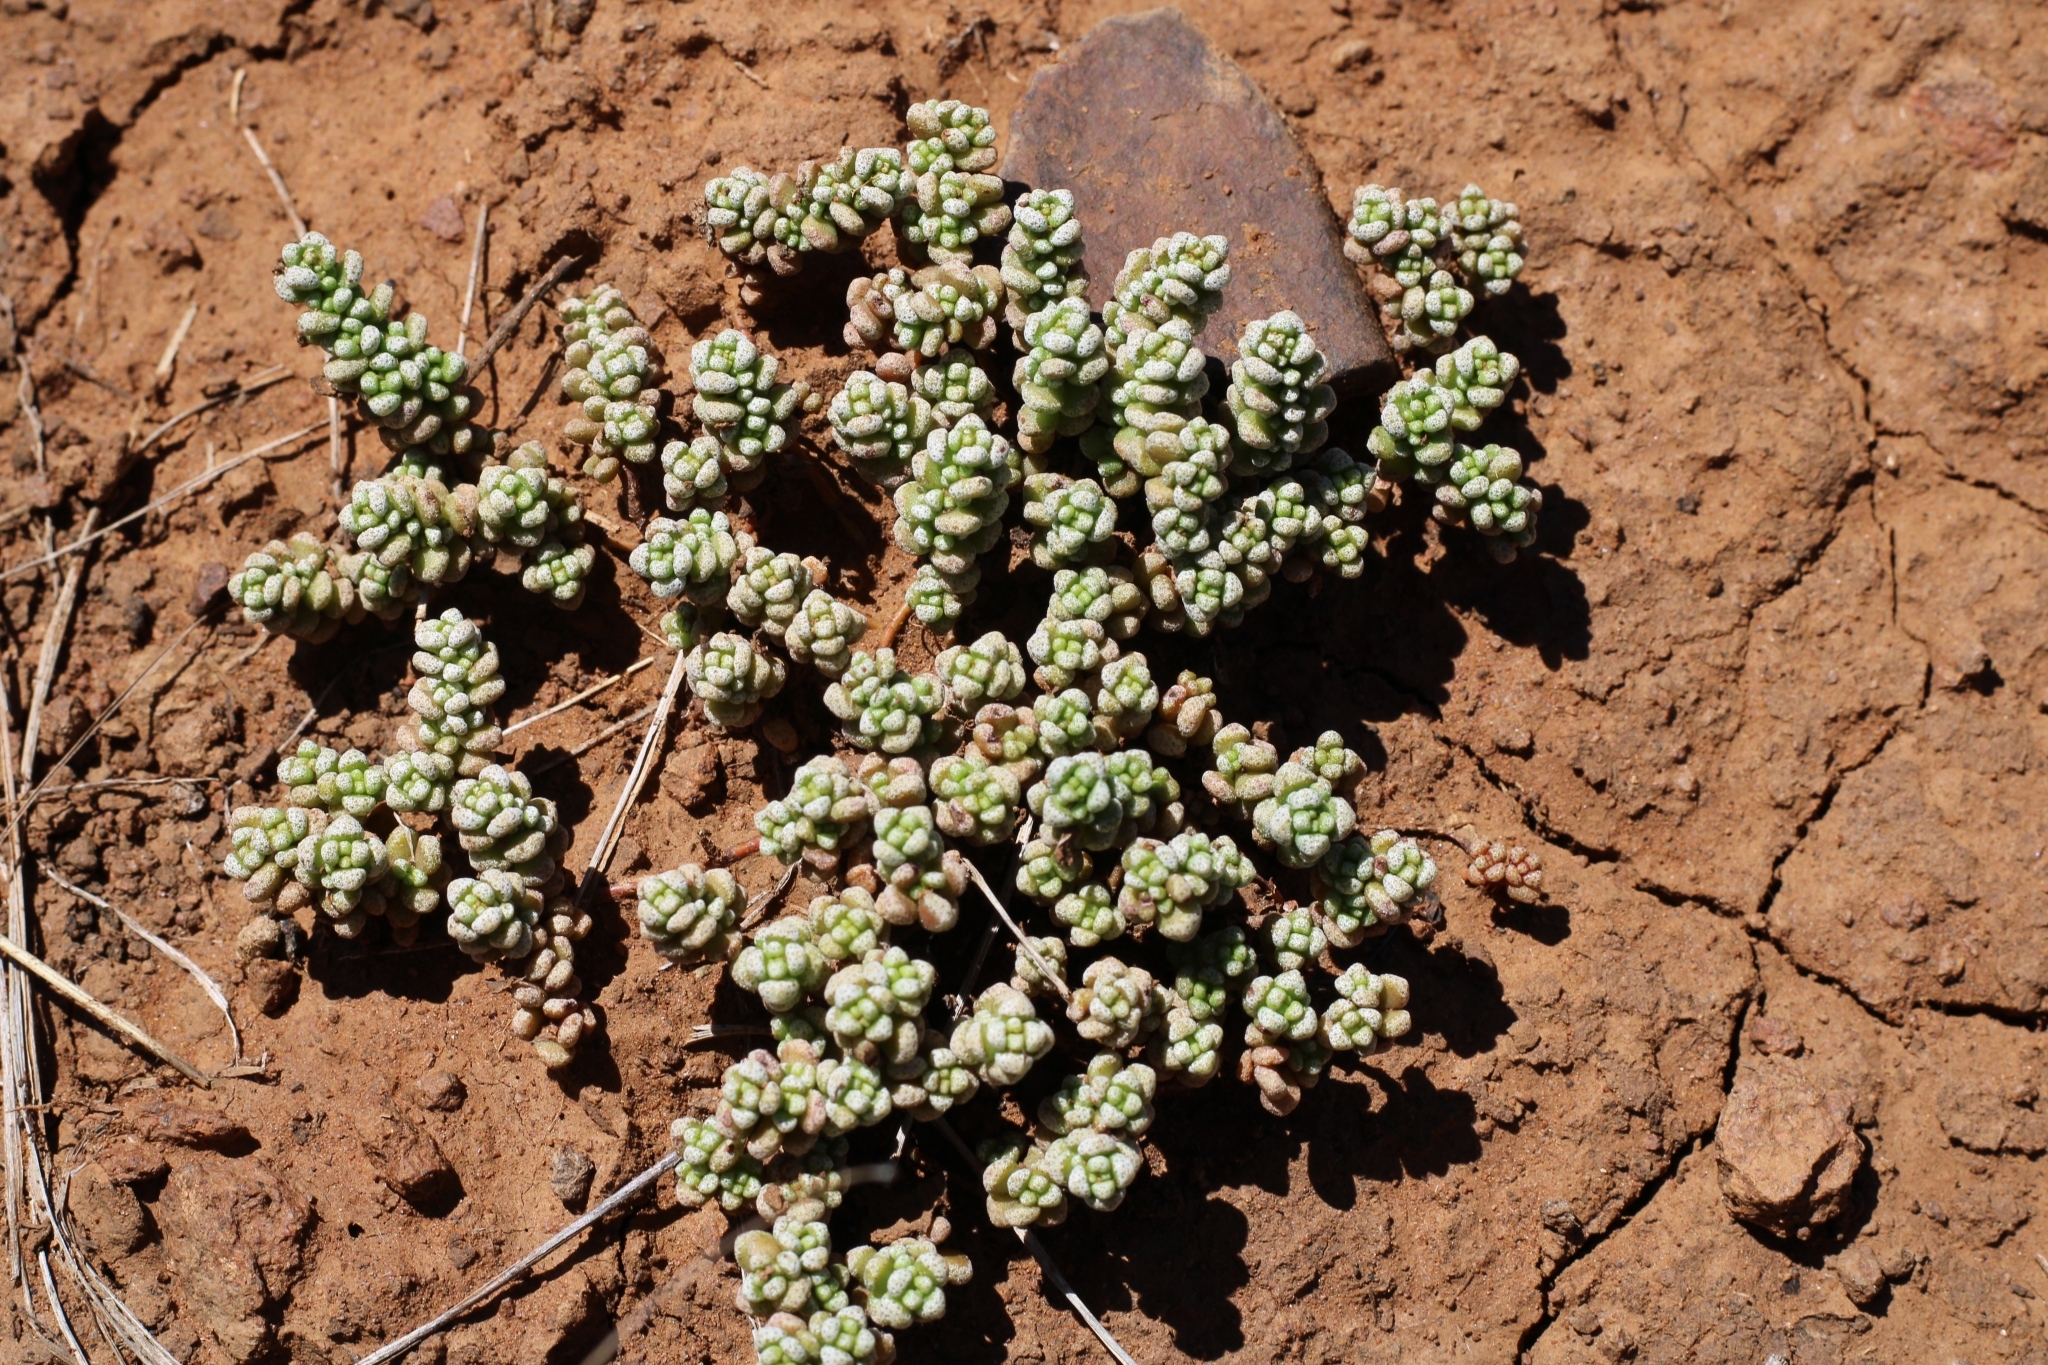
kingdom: Plantae
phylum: Tracheophyta
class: Magnoliopsida
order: Saxifragales
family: Crassulaceae
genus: Crassula
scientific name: Crassula corallina
